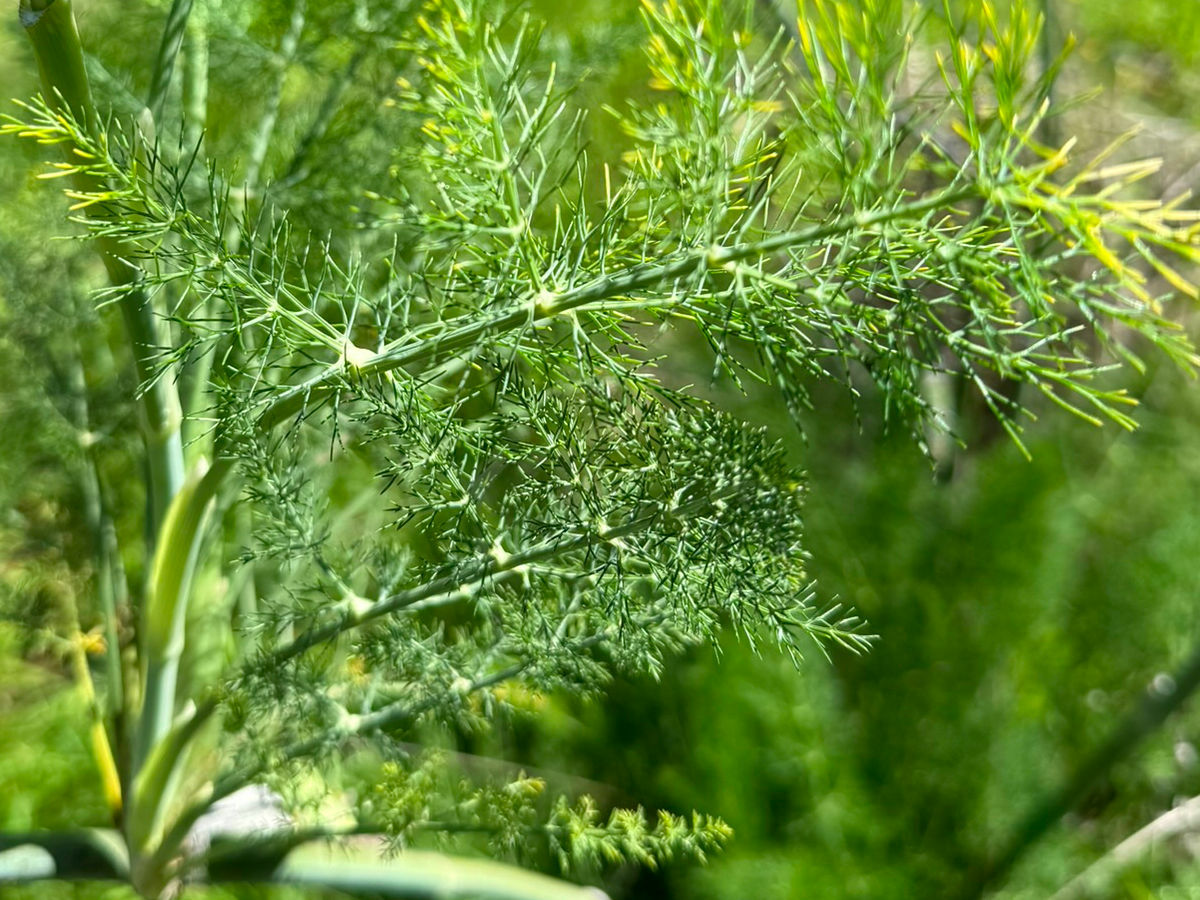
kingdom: Plantae
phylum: Tracheophyta
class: Magnoliopsida
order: Apiales
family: Apiaceae
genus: Foeniculum
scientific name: Foeniculum vulgare
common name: Fennel
